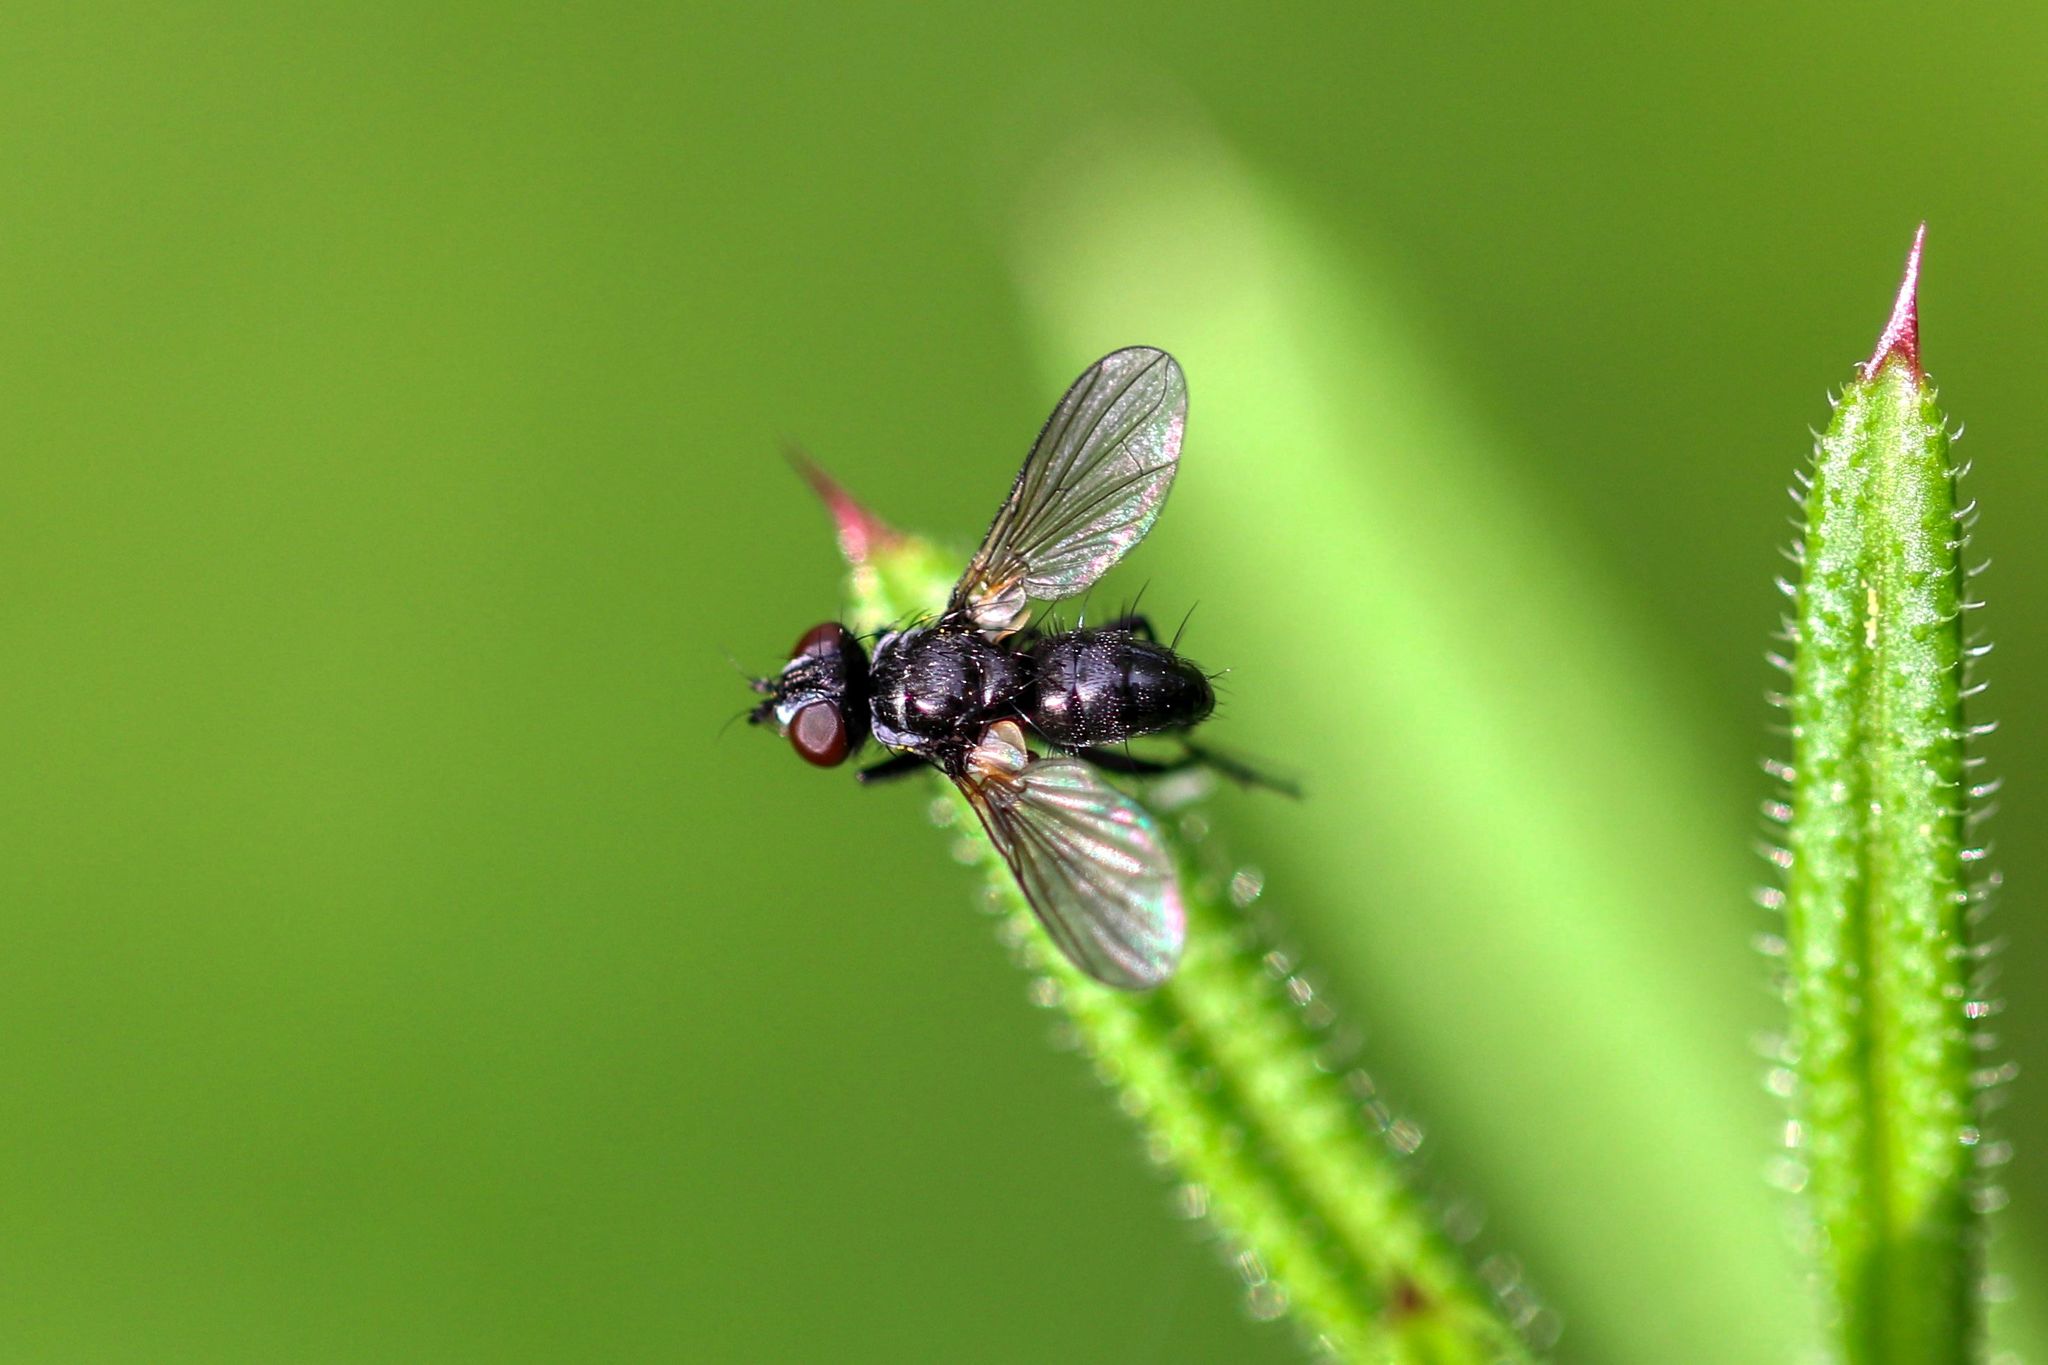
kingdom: Animalia
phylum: Arthropoda
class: Insecta
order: Diptera
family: Tachinidae
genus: Phania
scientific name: Phania funesta
